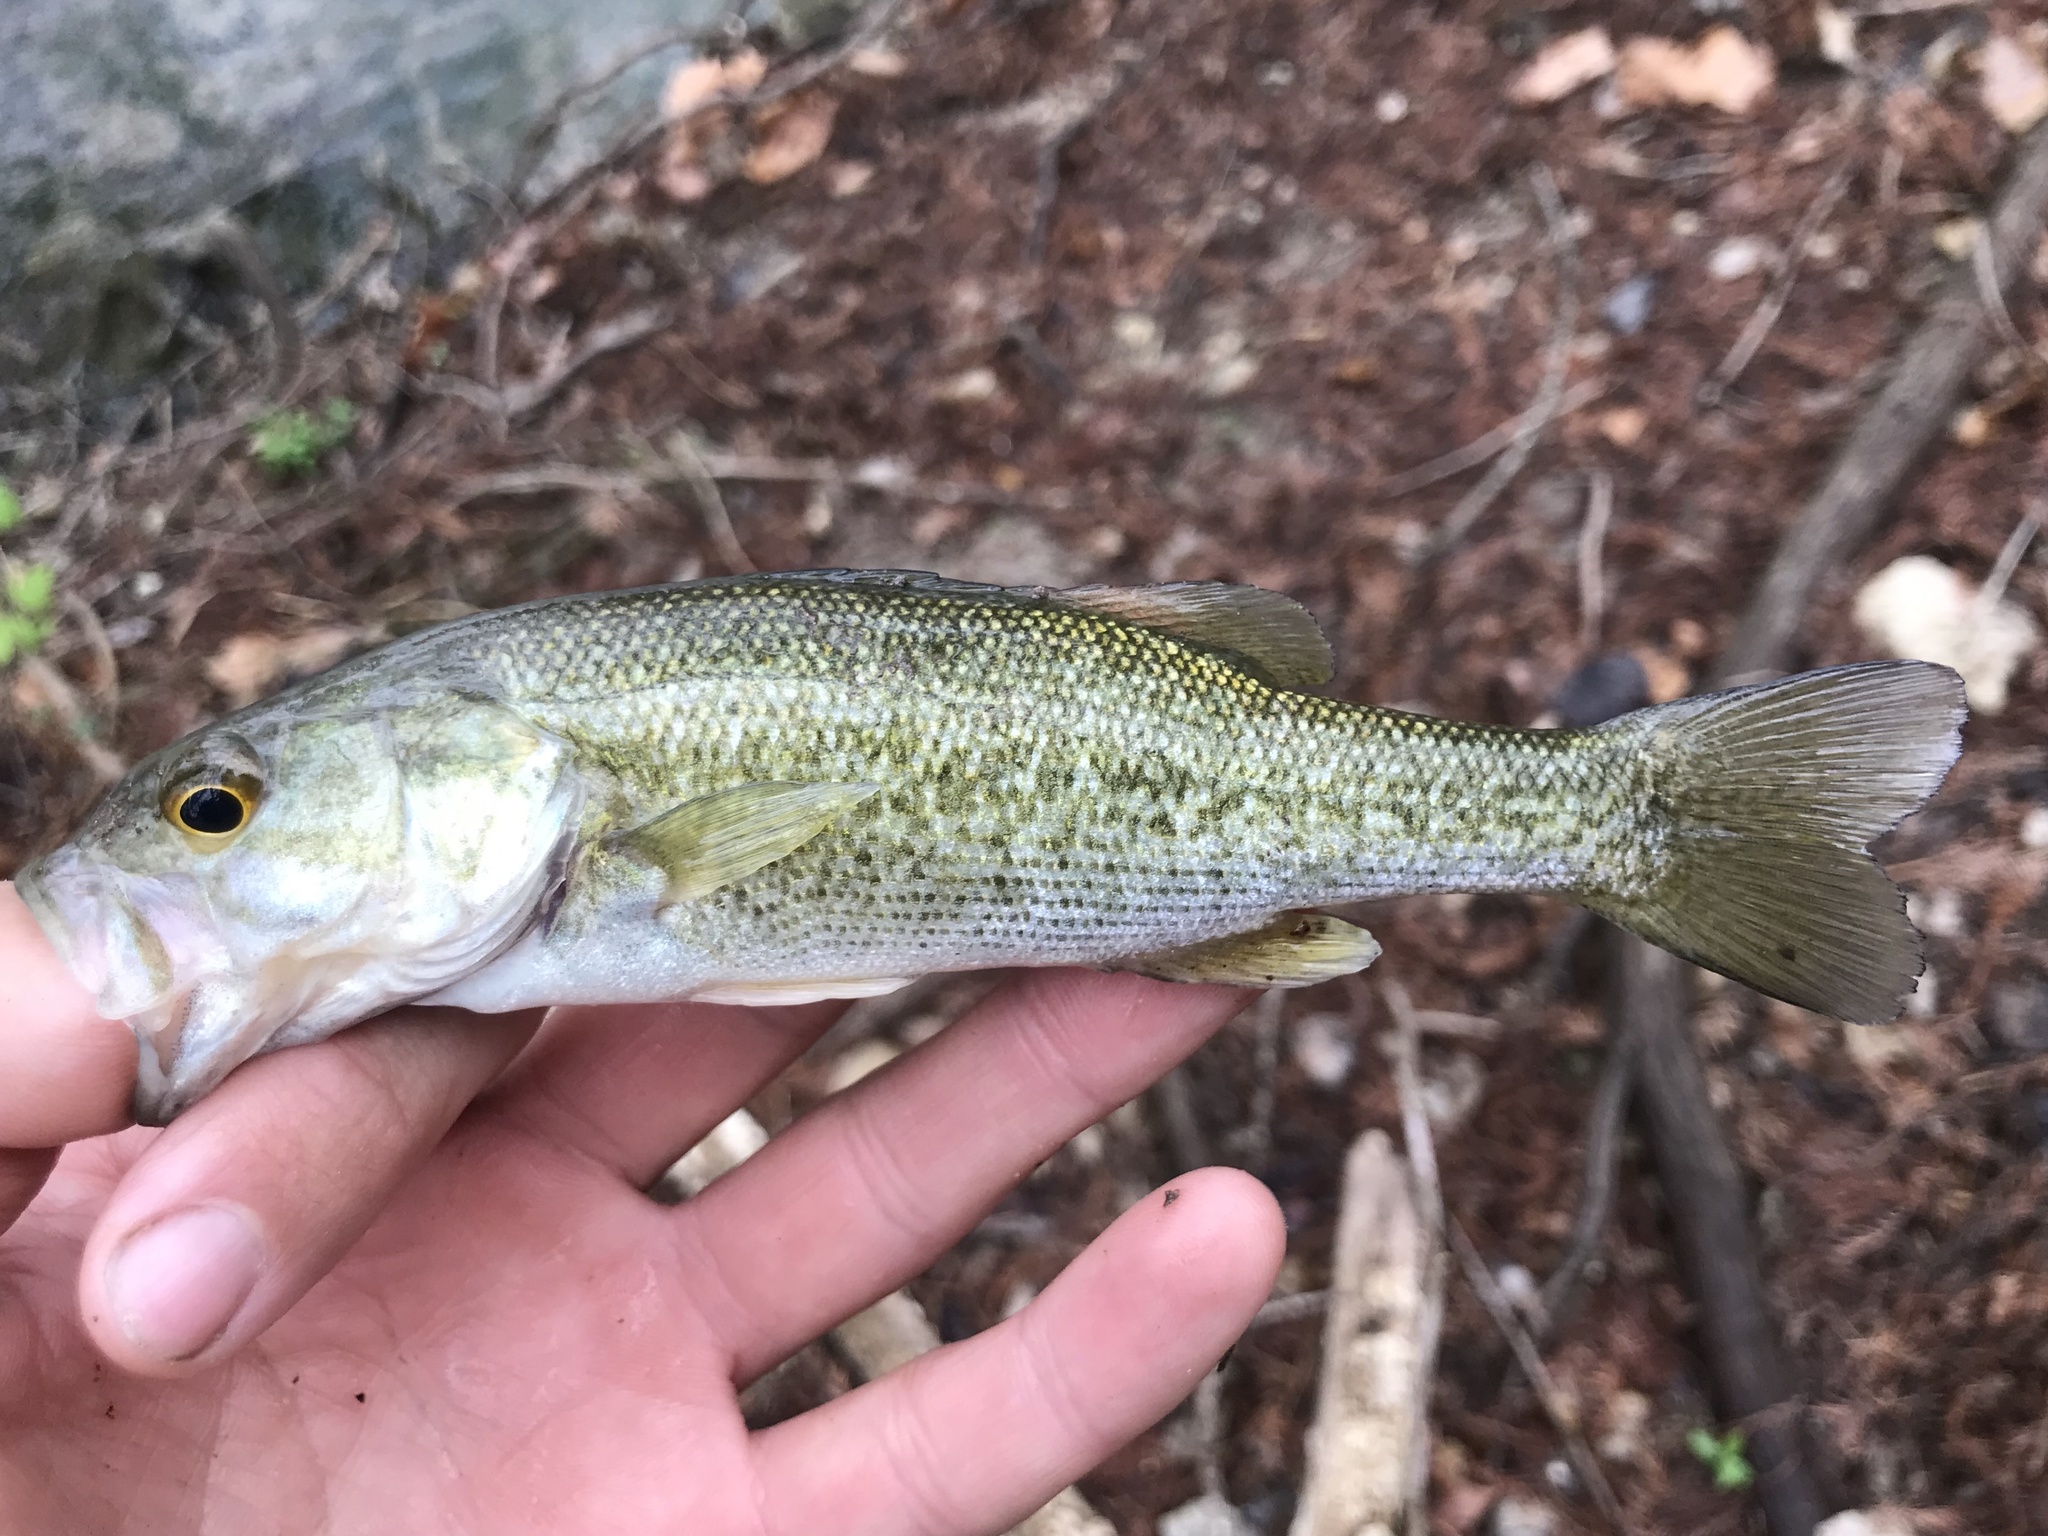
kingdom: Animalia
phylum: Chordata
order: Perciformes
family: Centrarchidae
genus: Micropterus
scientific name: Micropterus treculii
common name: Guadalupe bass
